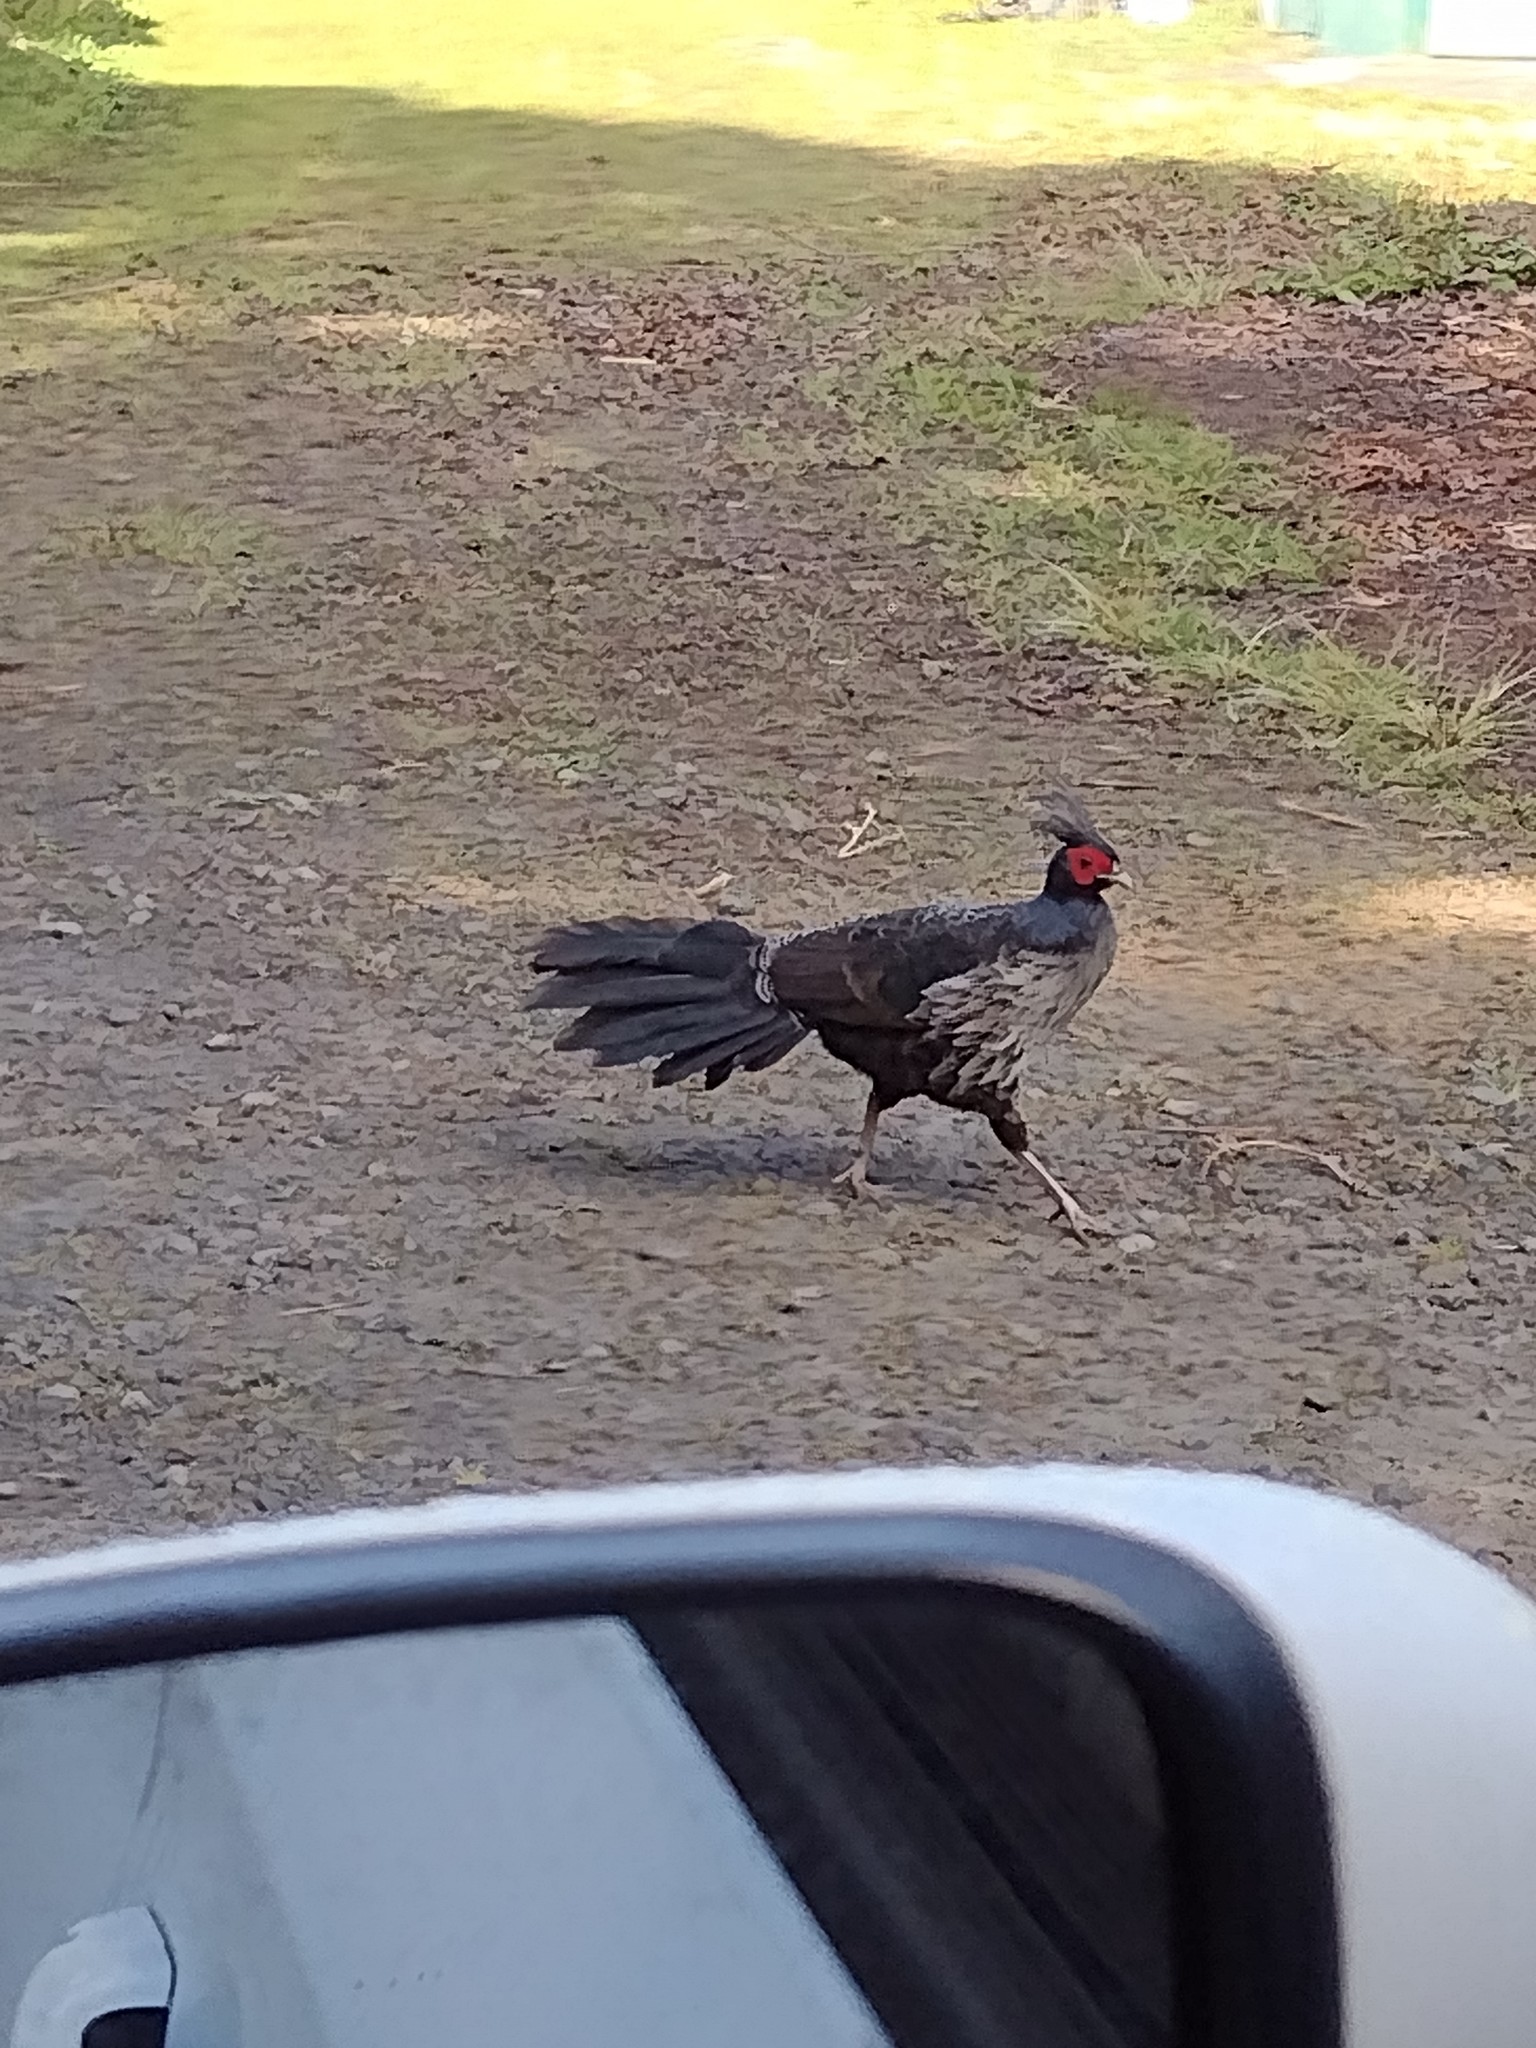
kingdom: Animalia
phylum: Chordata
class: Aves
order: Galliformes
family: Phasianidae
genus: Lophura
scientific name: Lophura leucomelanos
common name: Kalij pheasant
